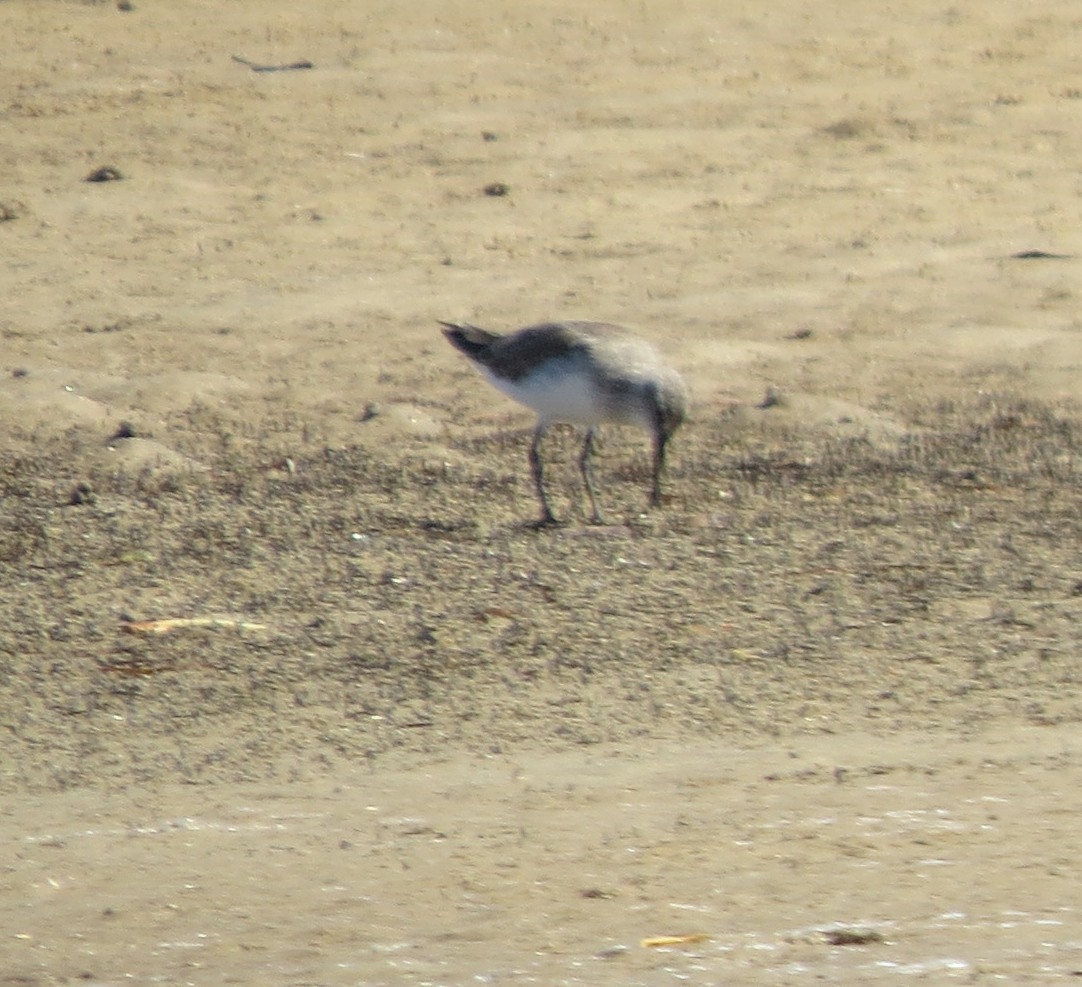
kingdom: Animalia
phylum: Chordata
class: Aves
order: Charadriiformes
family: Scolopacidae
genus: Calidris
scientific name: Calidris ferruginea
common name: Curlew sandpiper
